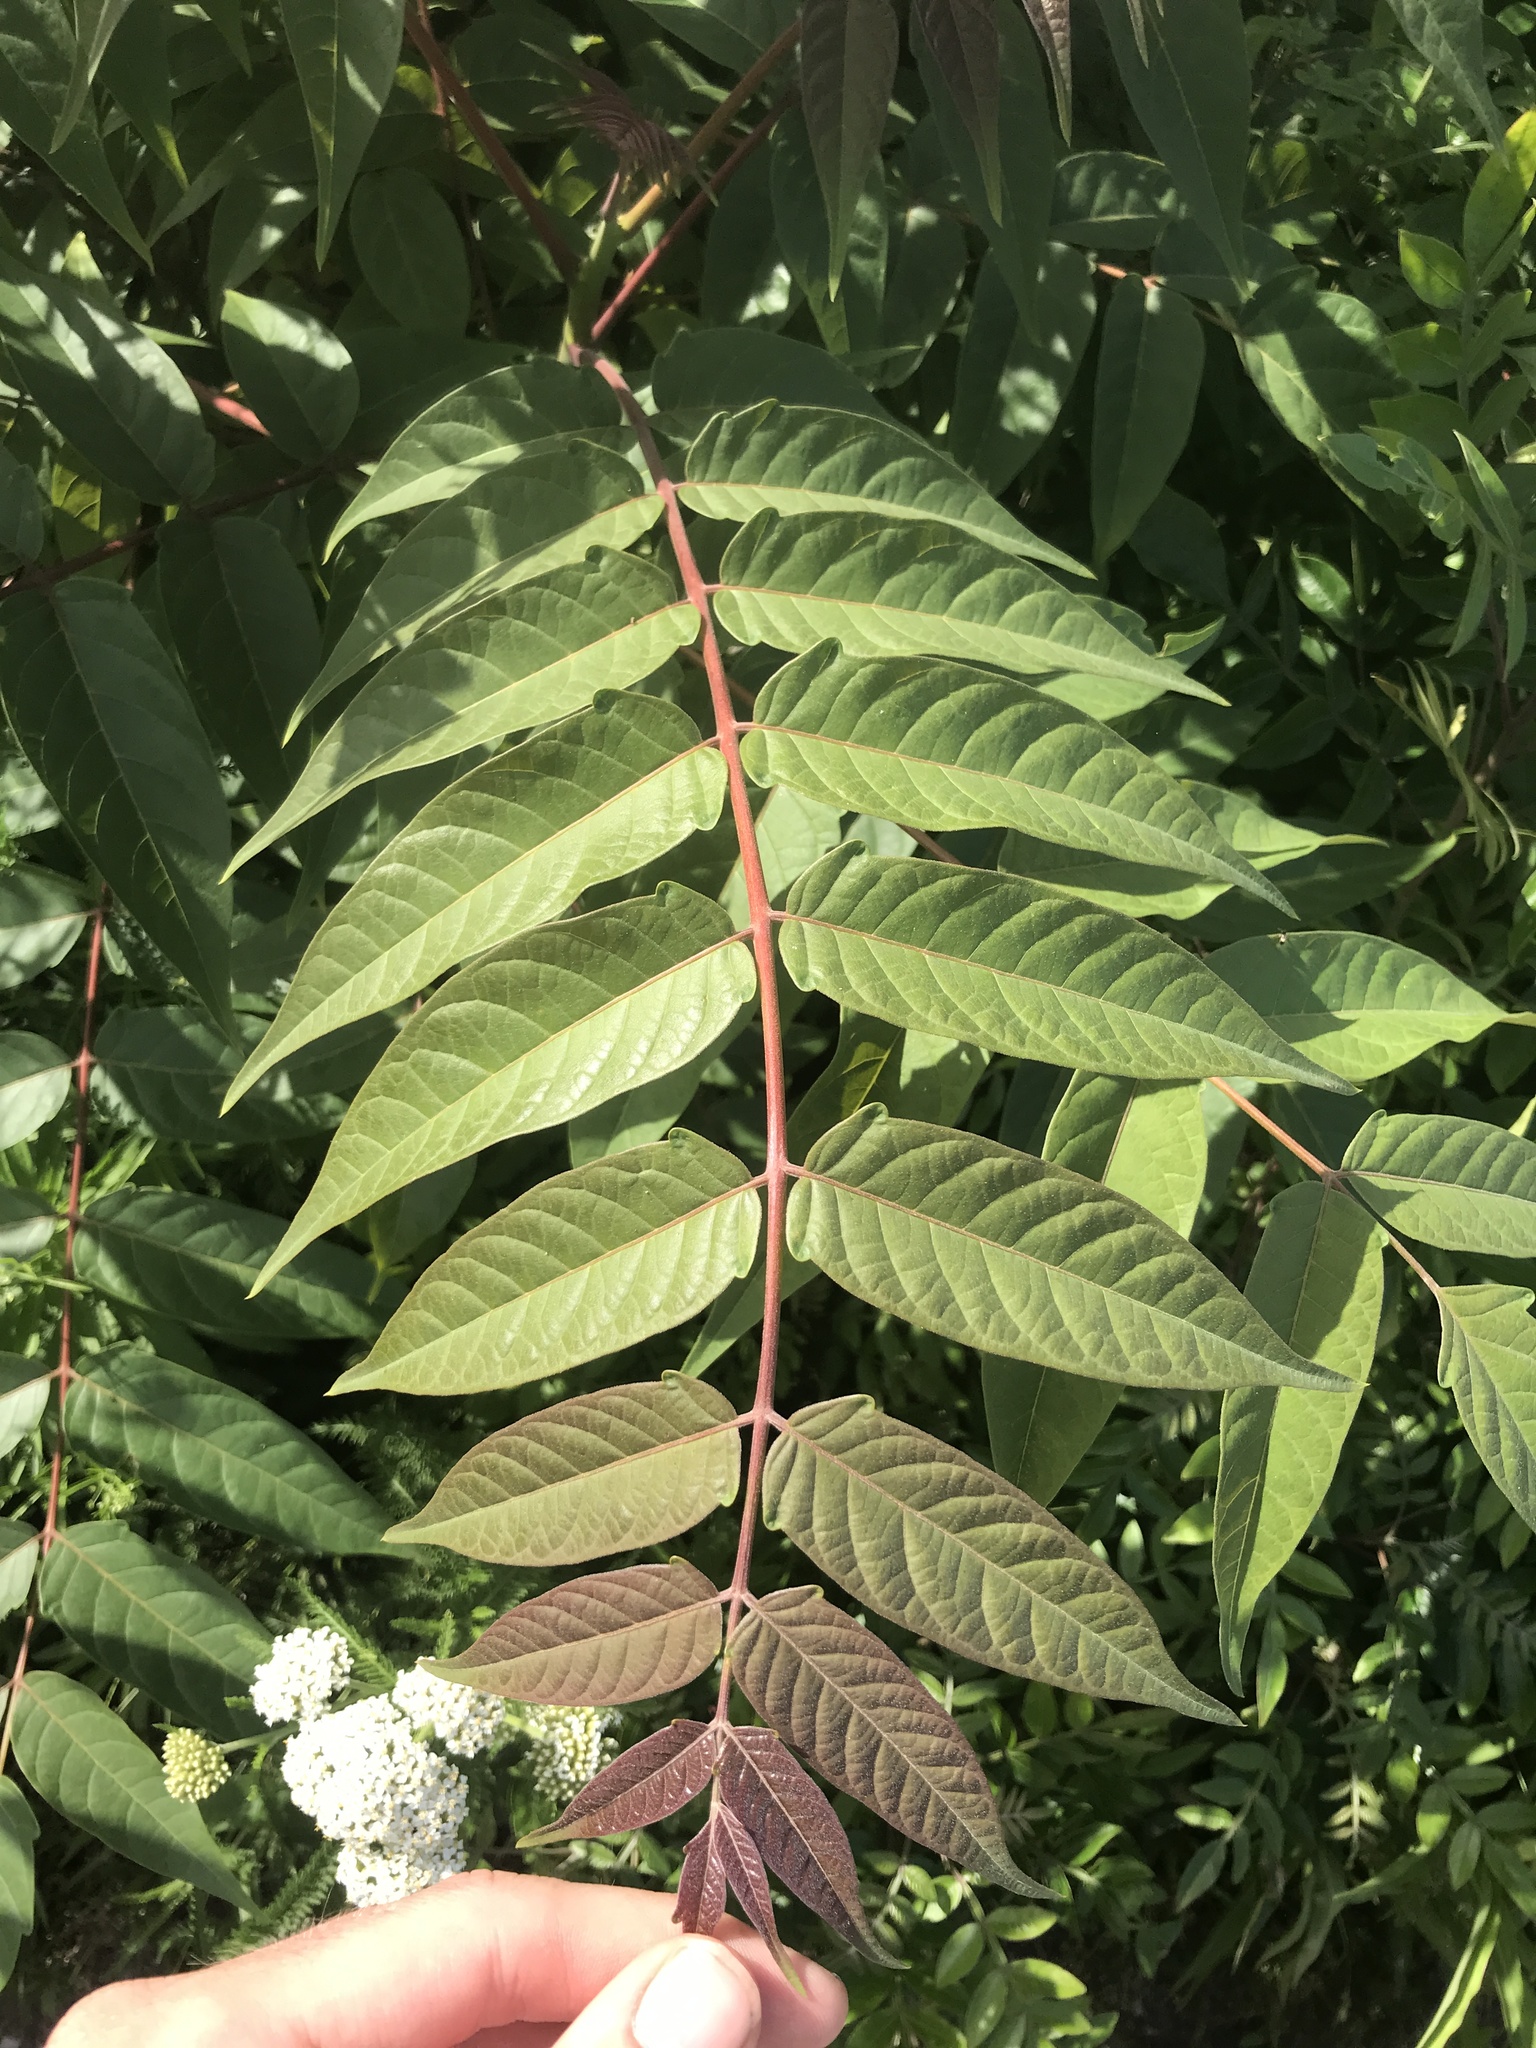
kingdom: Plantae
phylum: Tracheophyta
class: Magnoliopsida
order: Sapindales
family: Simaroubaceae
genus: Ailanthus
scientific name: Ailanthus altissima
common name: Tree-of-heaven
